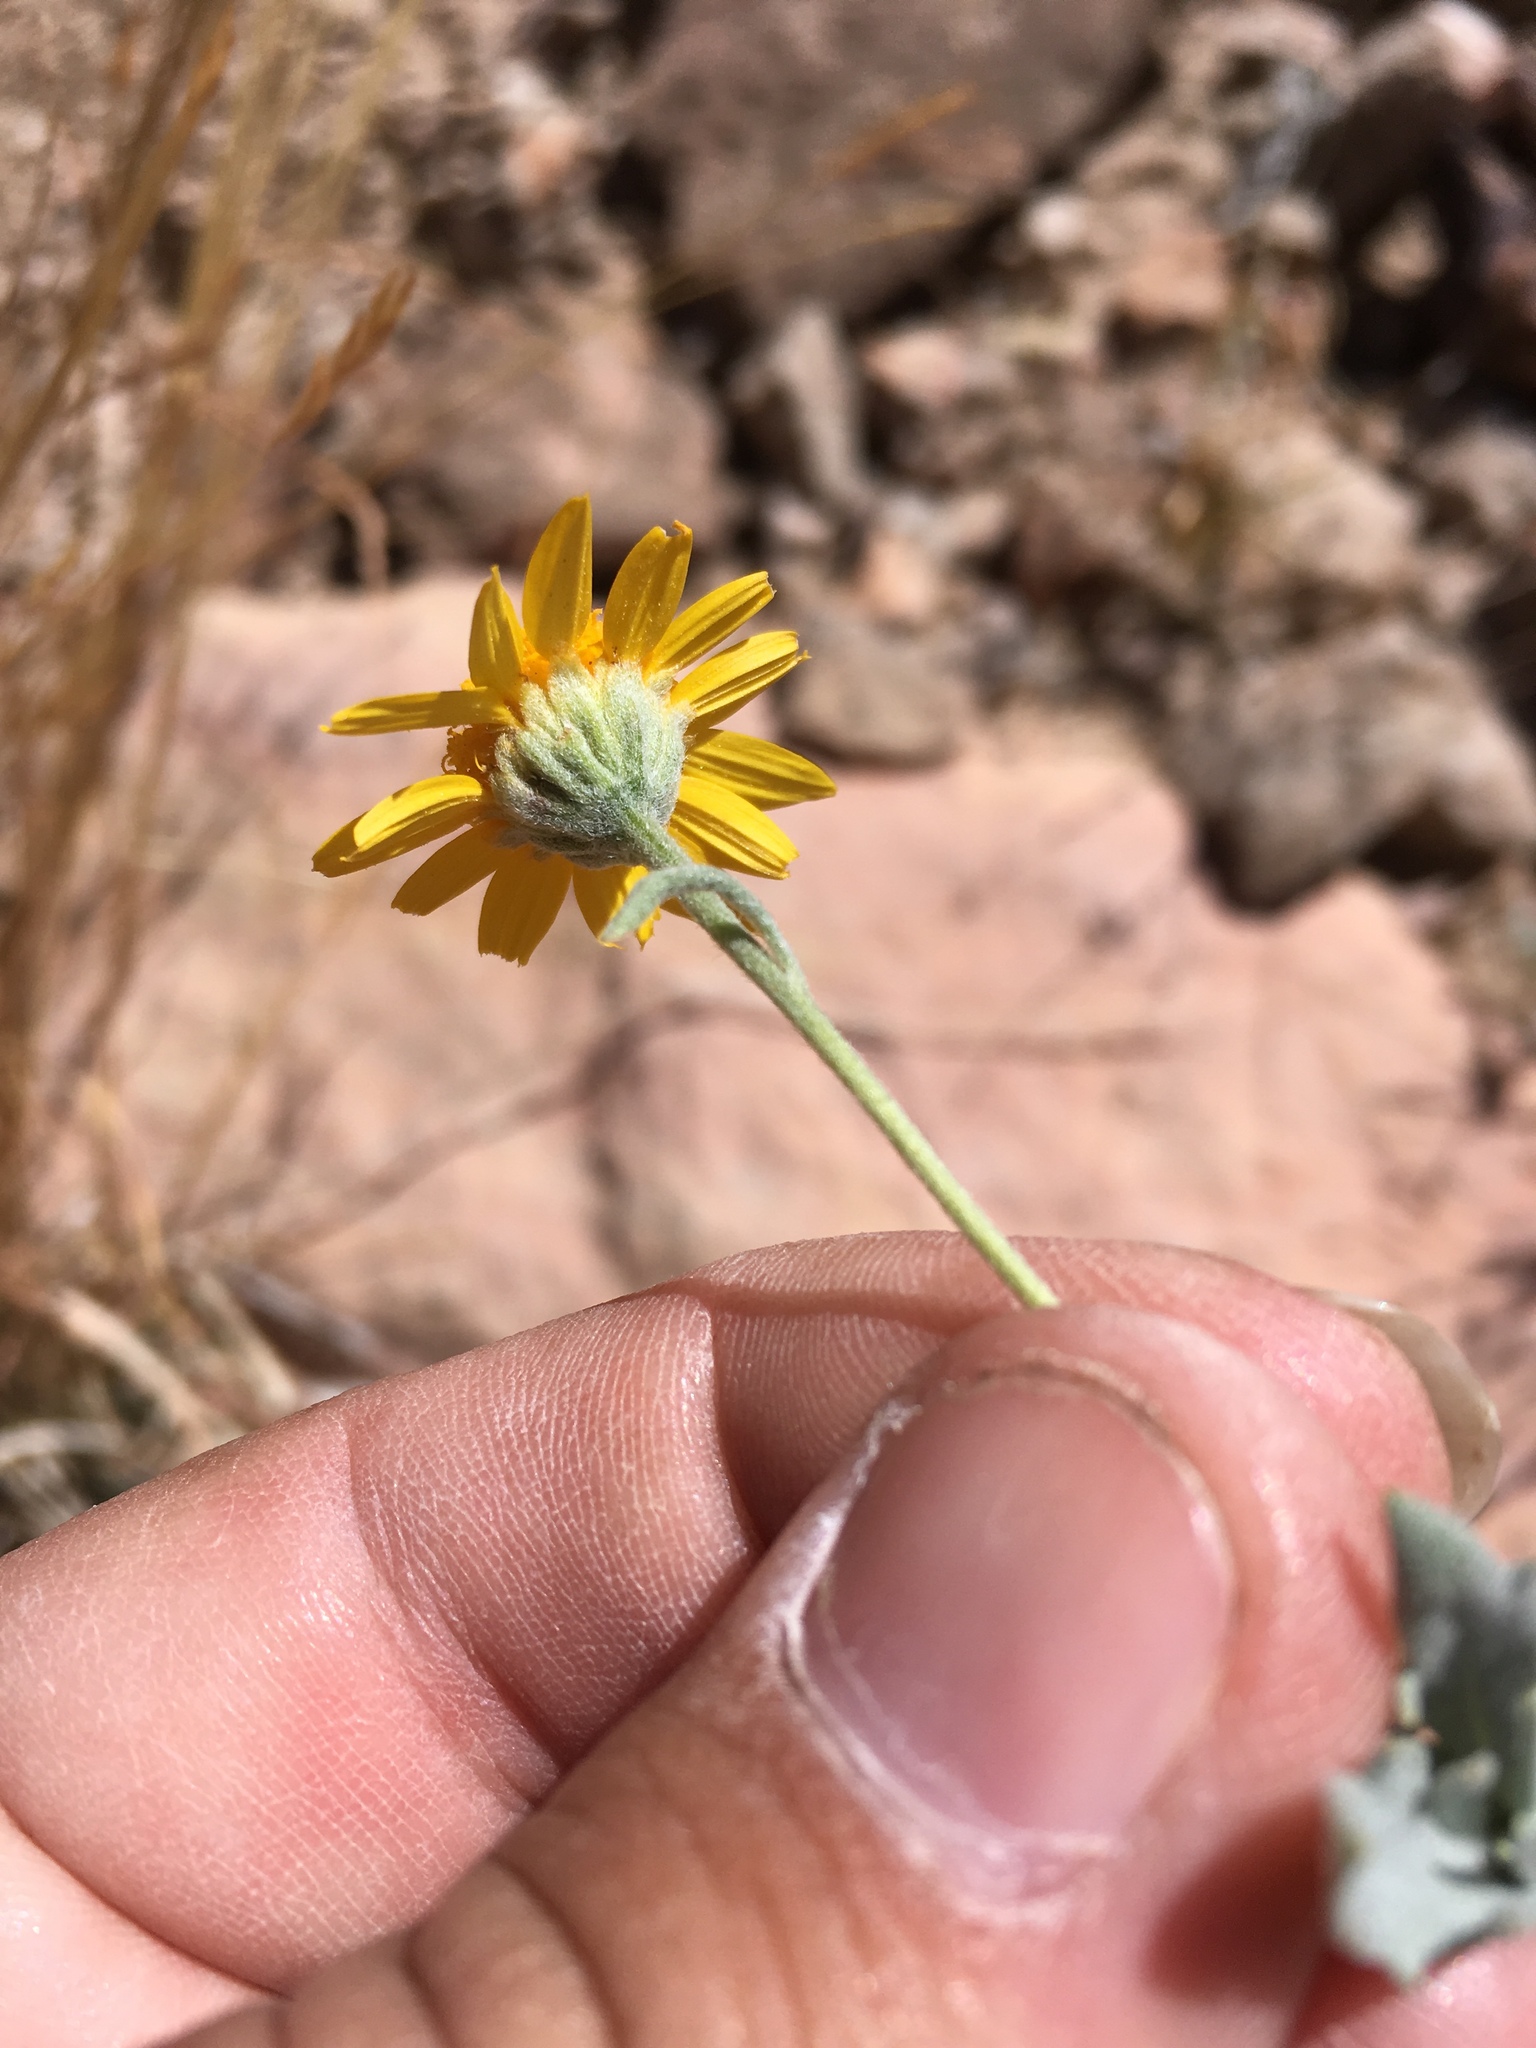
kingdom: Plantae
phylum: Tracheophyta
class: Magnoliopsida
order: Asterales
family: Asteraceae
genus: Picradeniopsis
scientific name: Picradeniopsis absinthifolia
